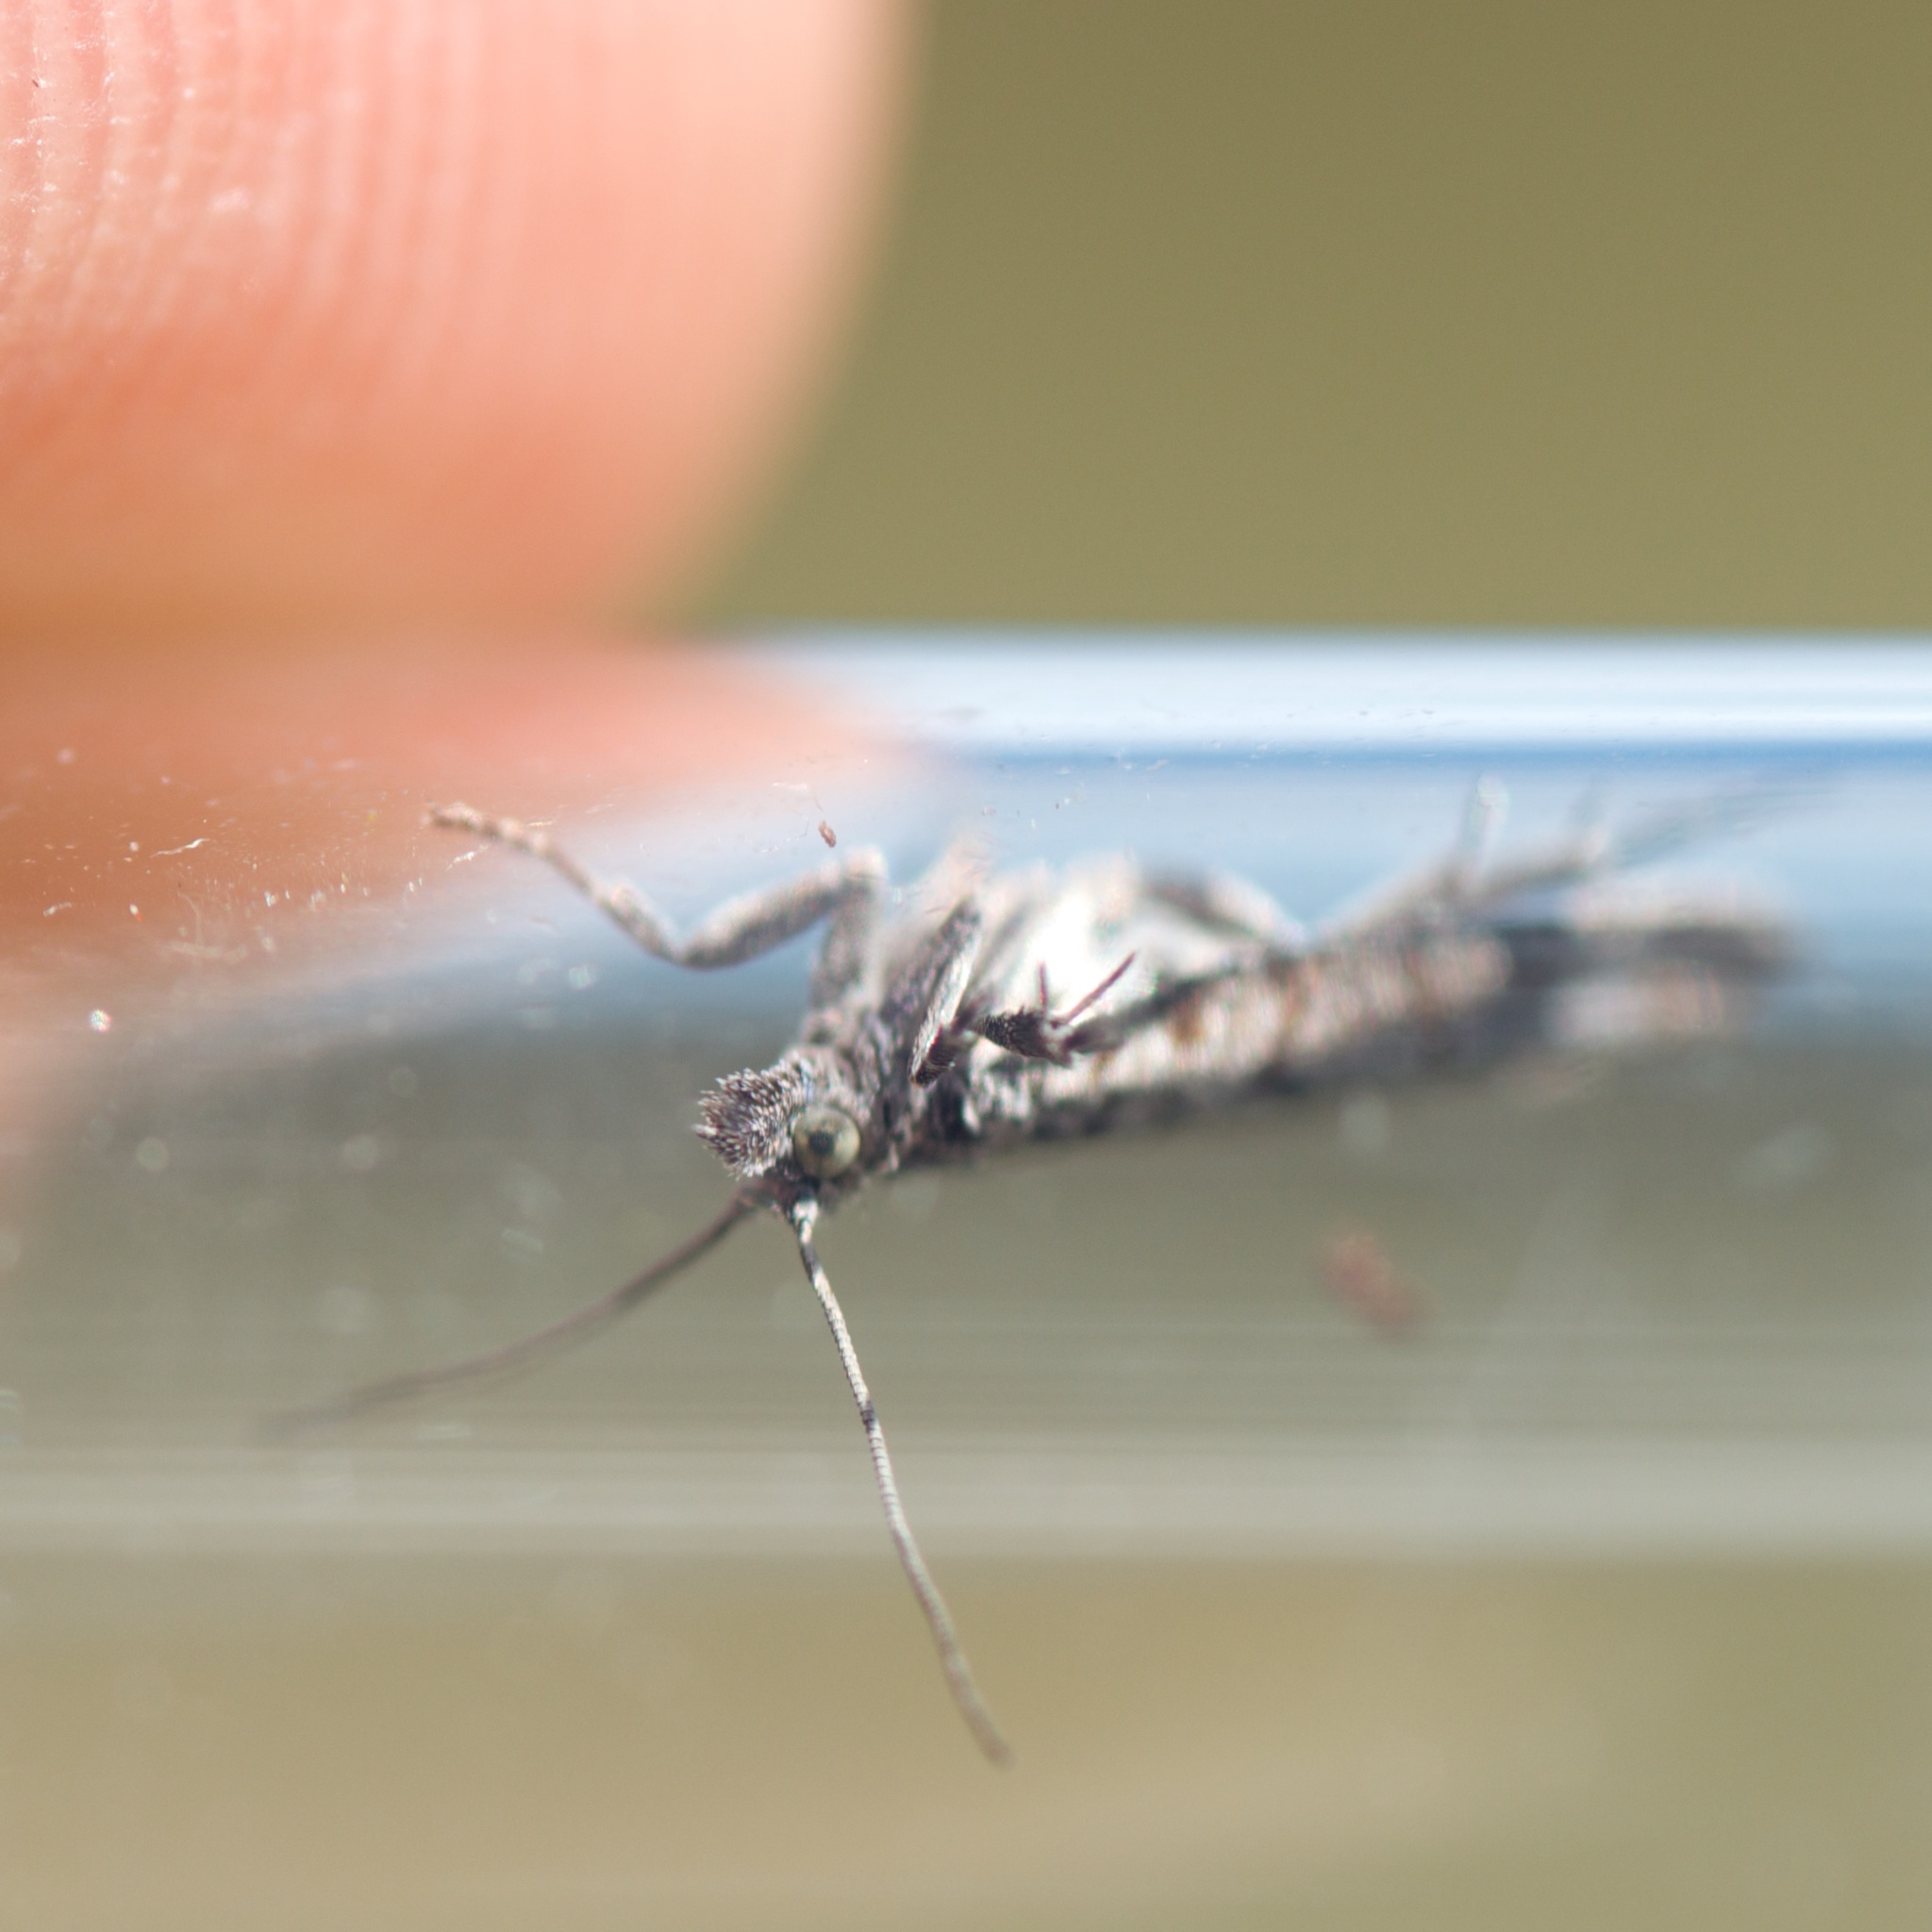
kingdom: Animalia
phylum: Arthropoda
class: Insecta
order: Lepidoptera
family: Tortricidae
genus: Acroclita
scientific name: Acroclita discariana
